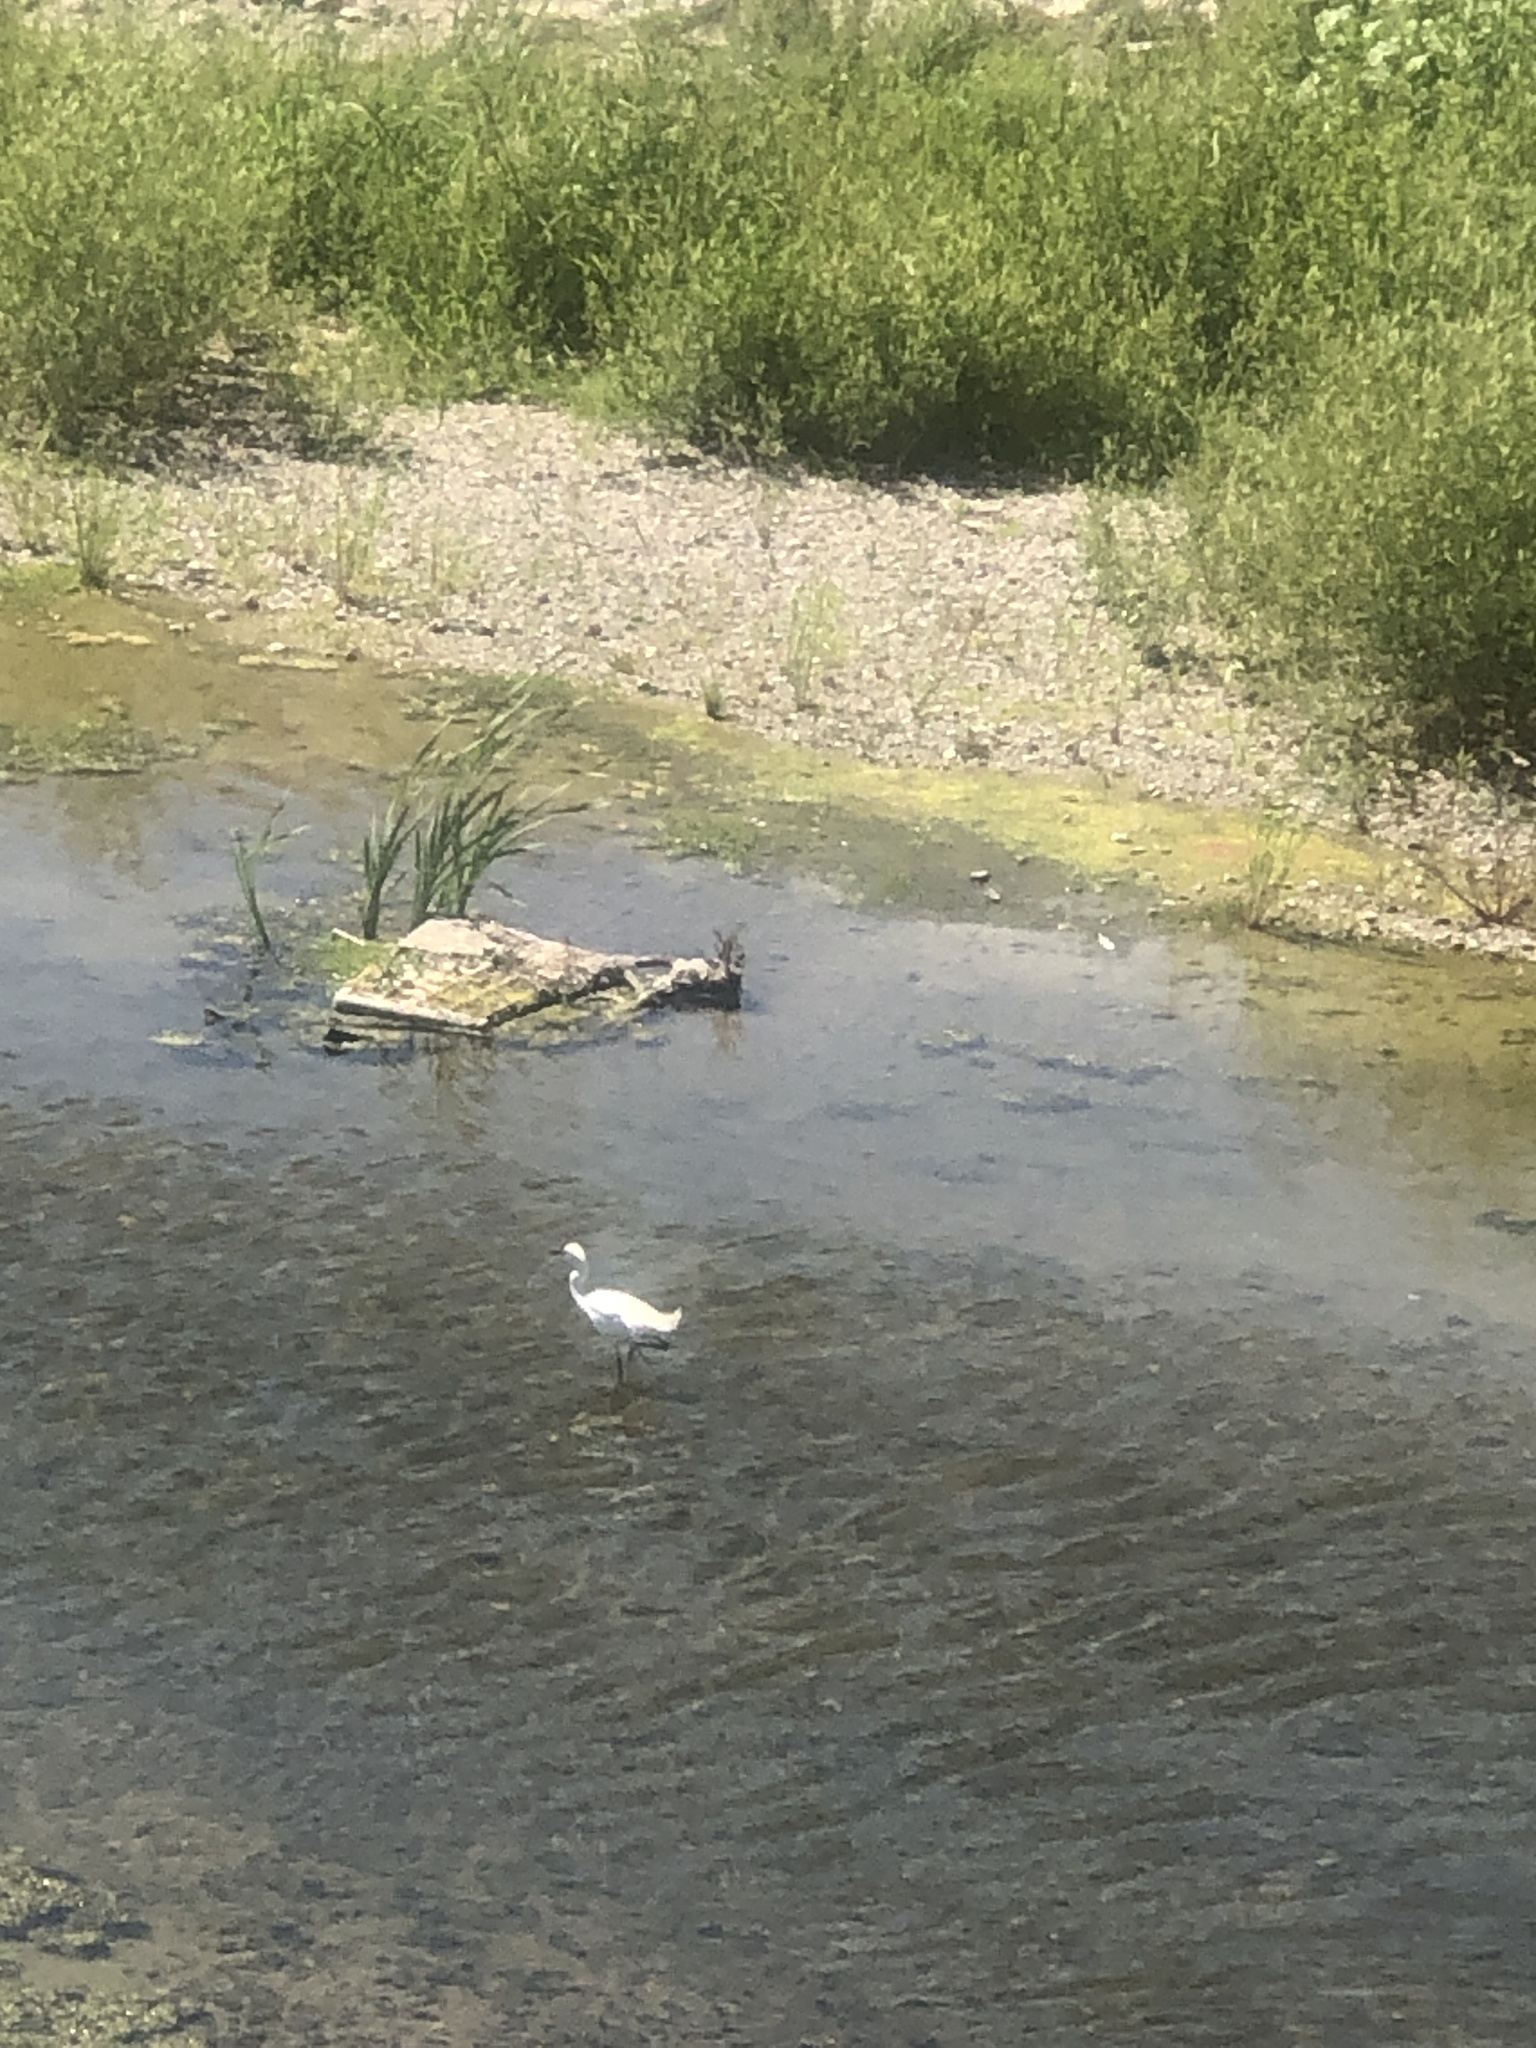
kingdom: Animalia
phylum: Chordata
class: Aves
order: Pelecaniformes
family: Ardeidae
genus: Egretta
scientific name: Egretta thula
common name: Snowy egret
